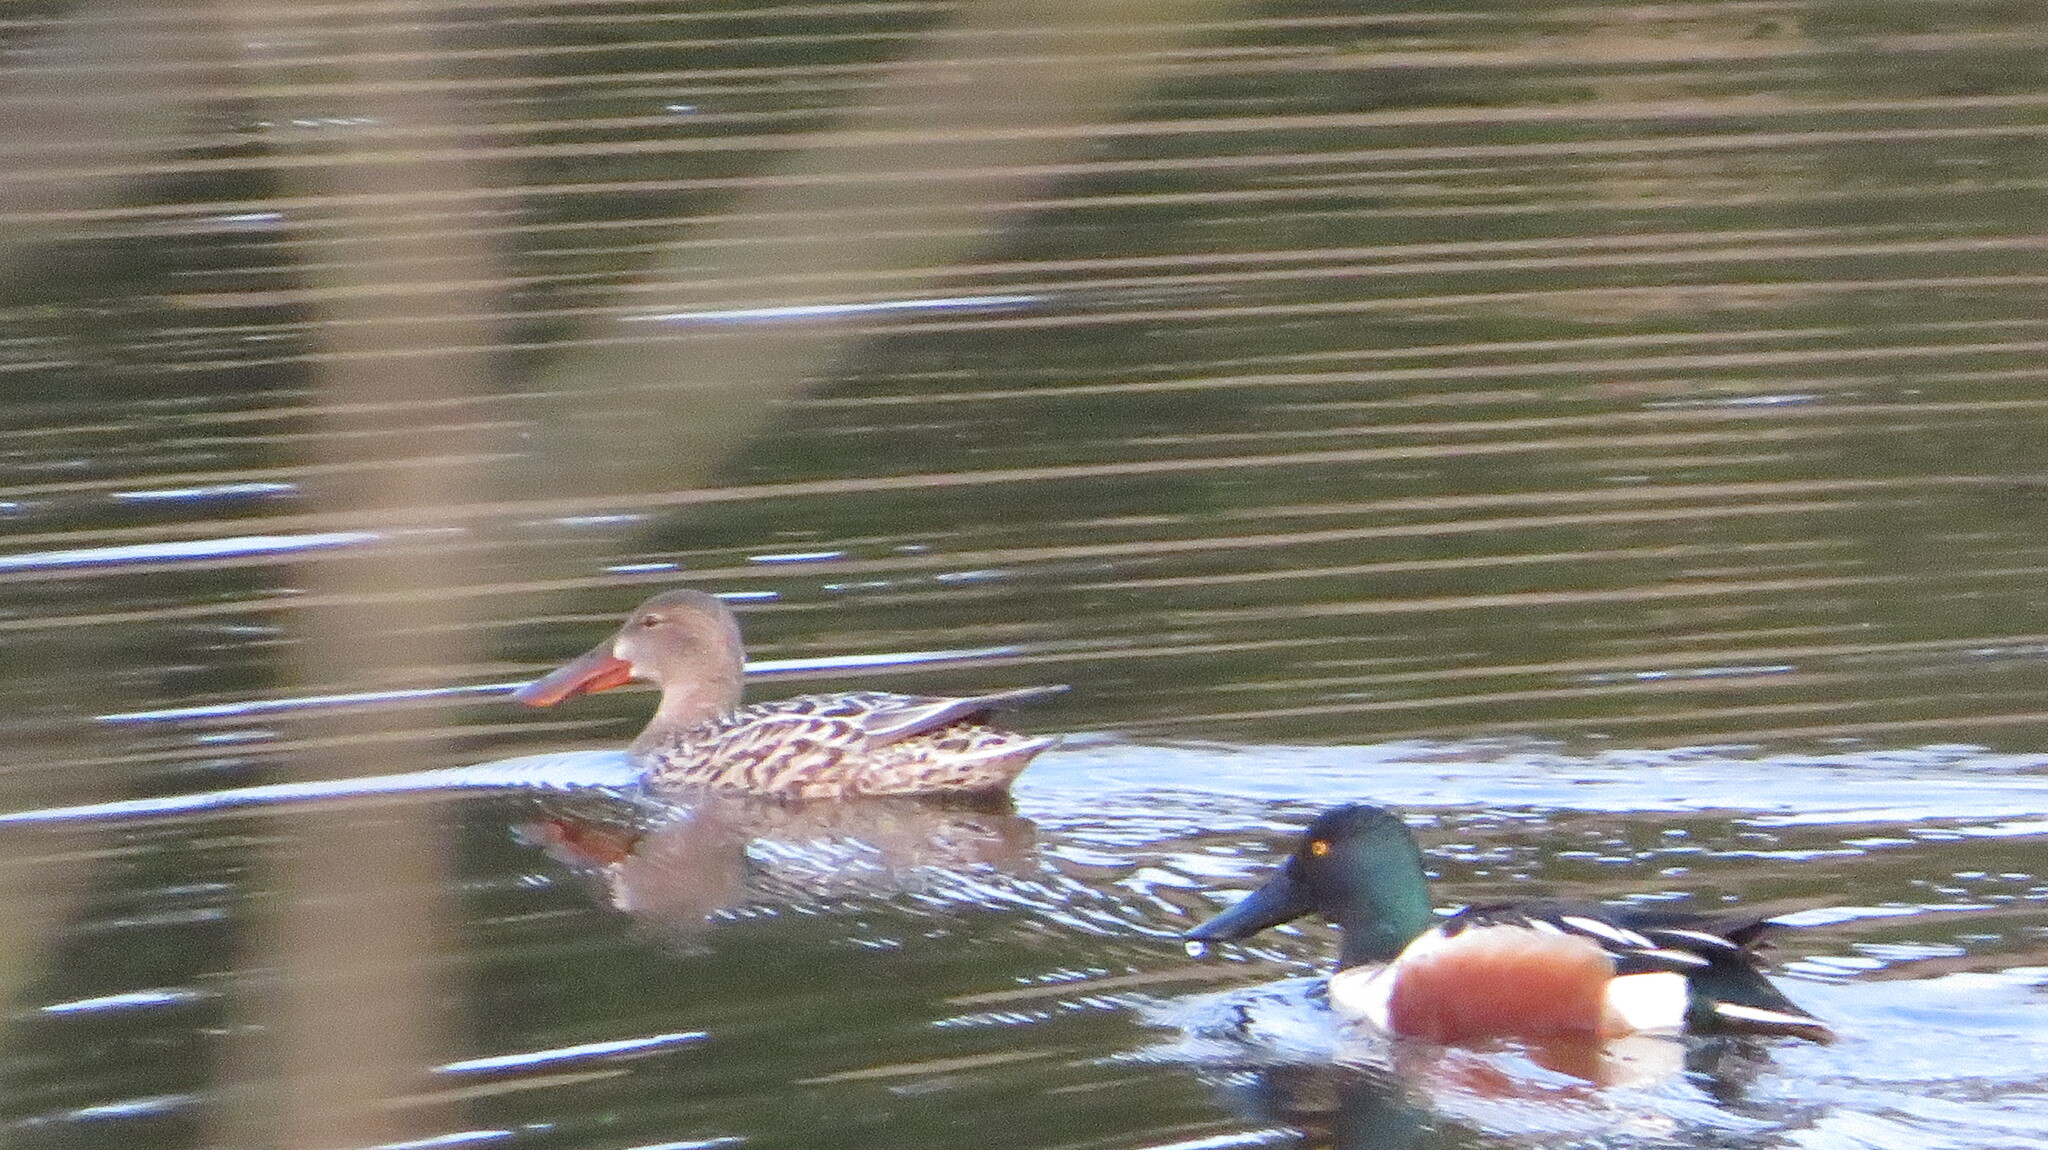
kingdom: Animalia
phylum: Chordata
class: Aves
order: Anseriformes
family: Anatidae
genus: Spatula
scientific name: Spatula clypeata
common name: Northern shoveler
